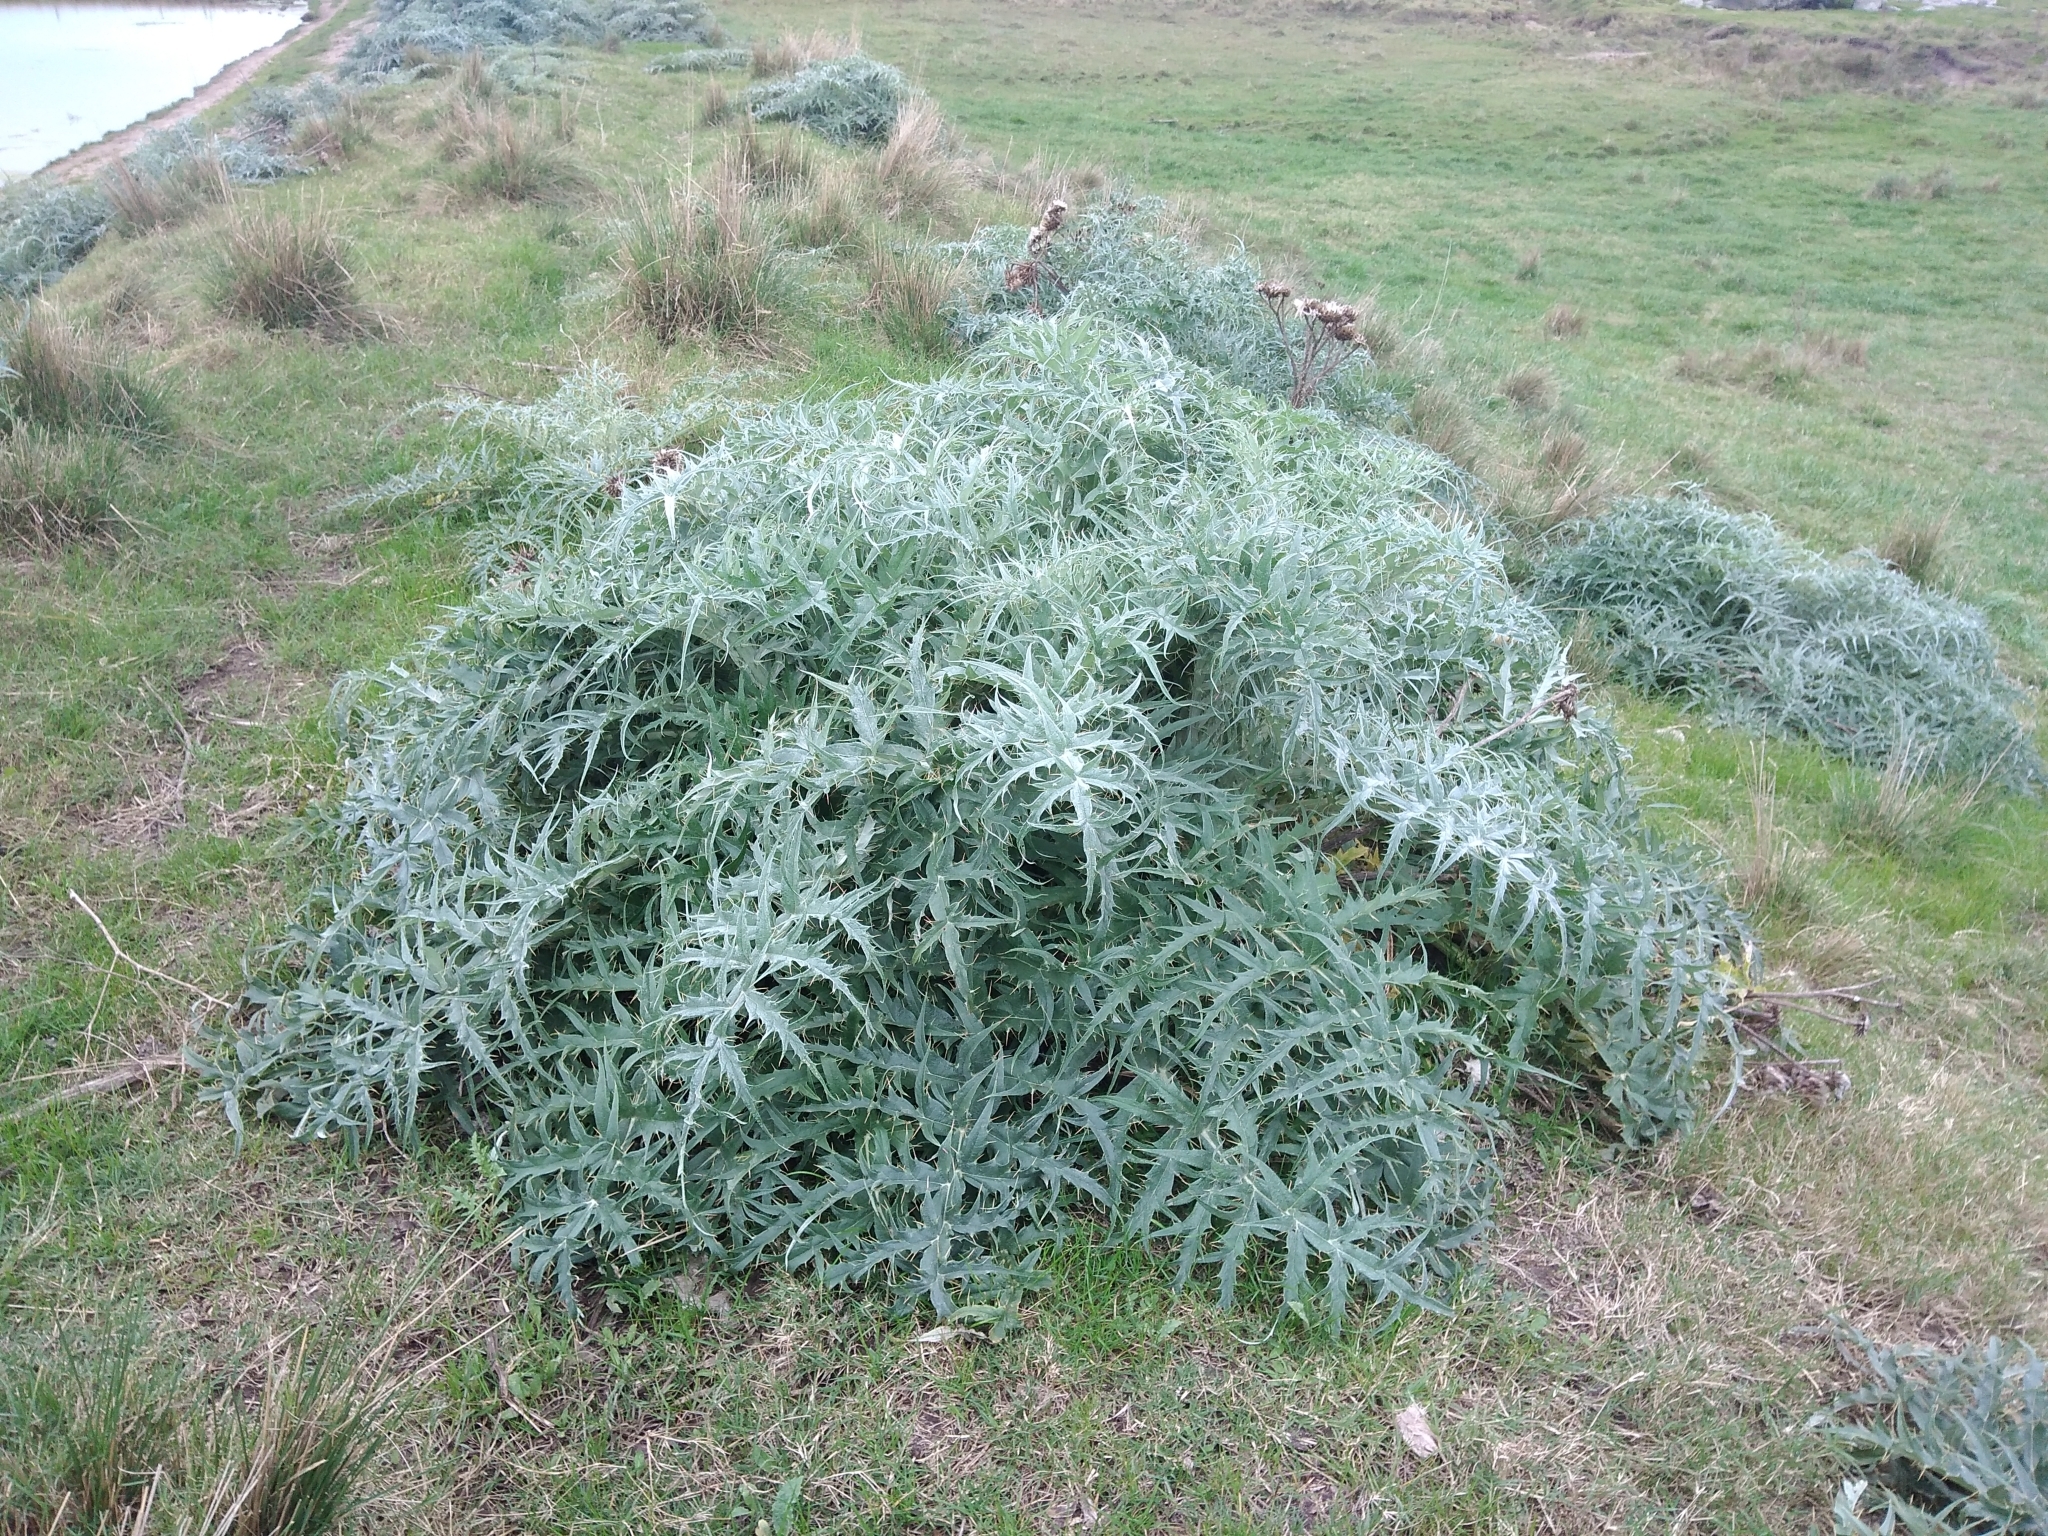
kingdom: Plantae
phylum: Tracheophyta
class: Magnoliopsida
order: Asterales
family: Asteraceae
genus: Cynara
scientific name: Cynara cardunculus
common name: Globe artichoke
